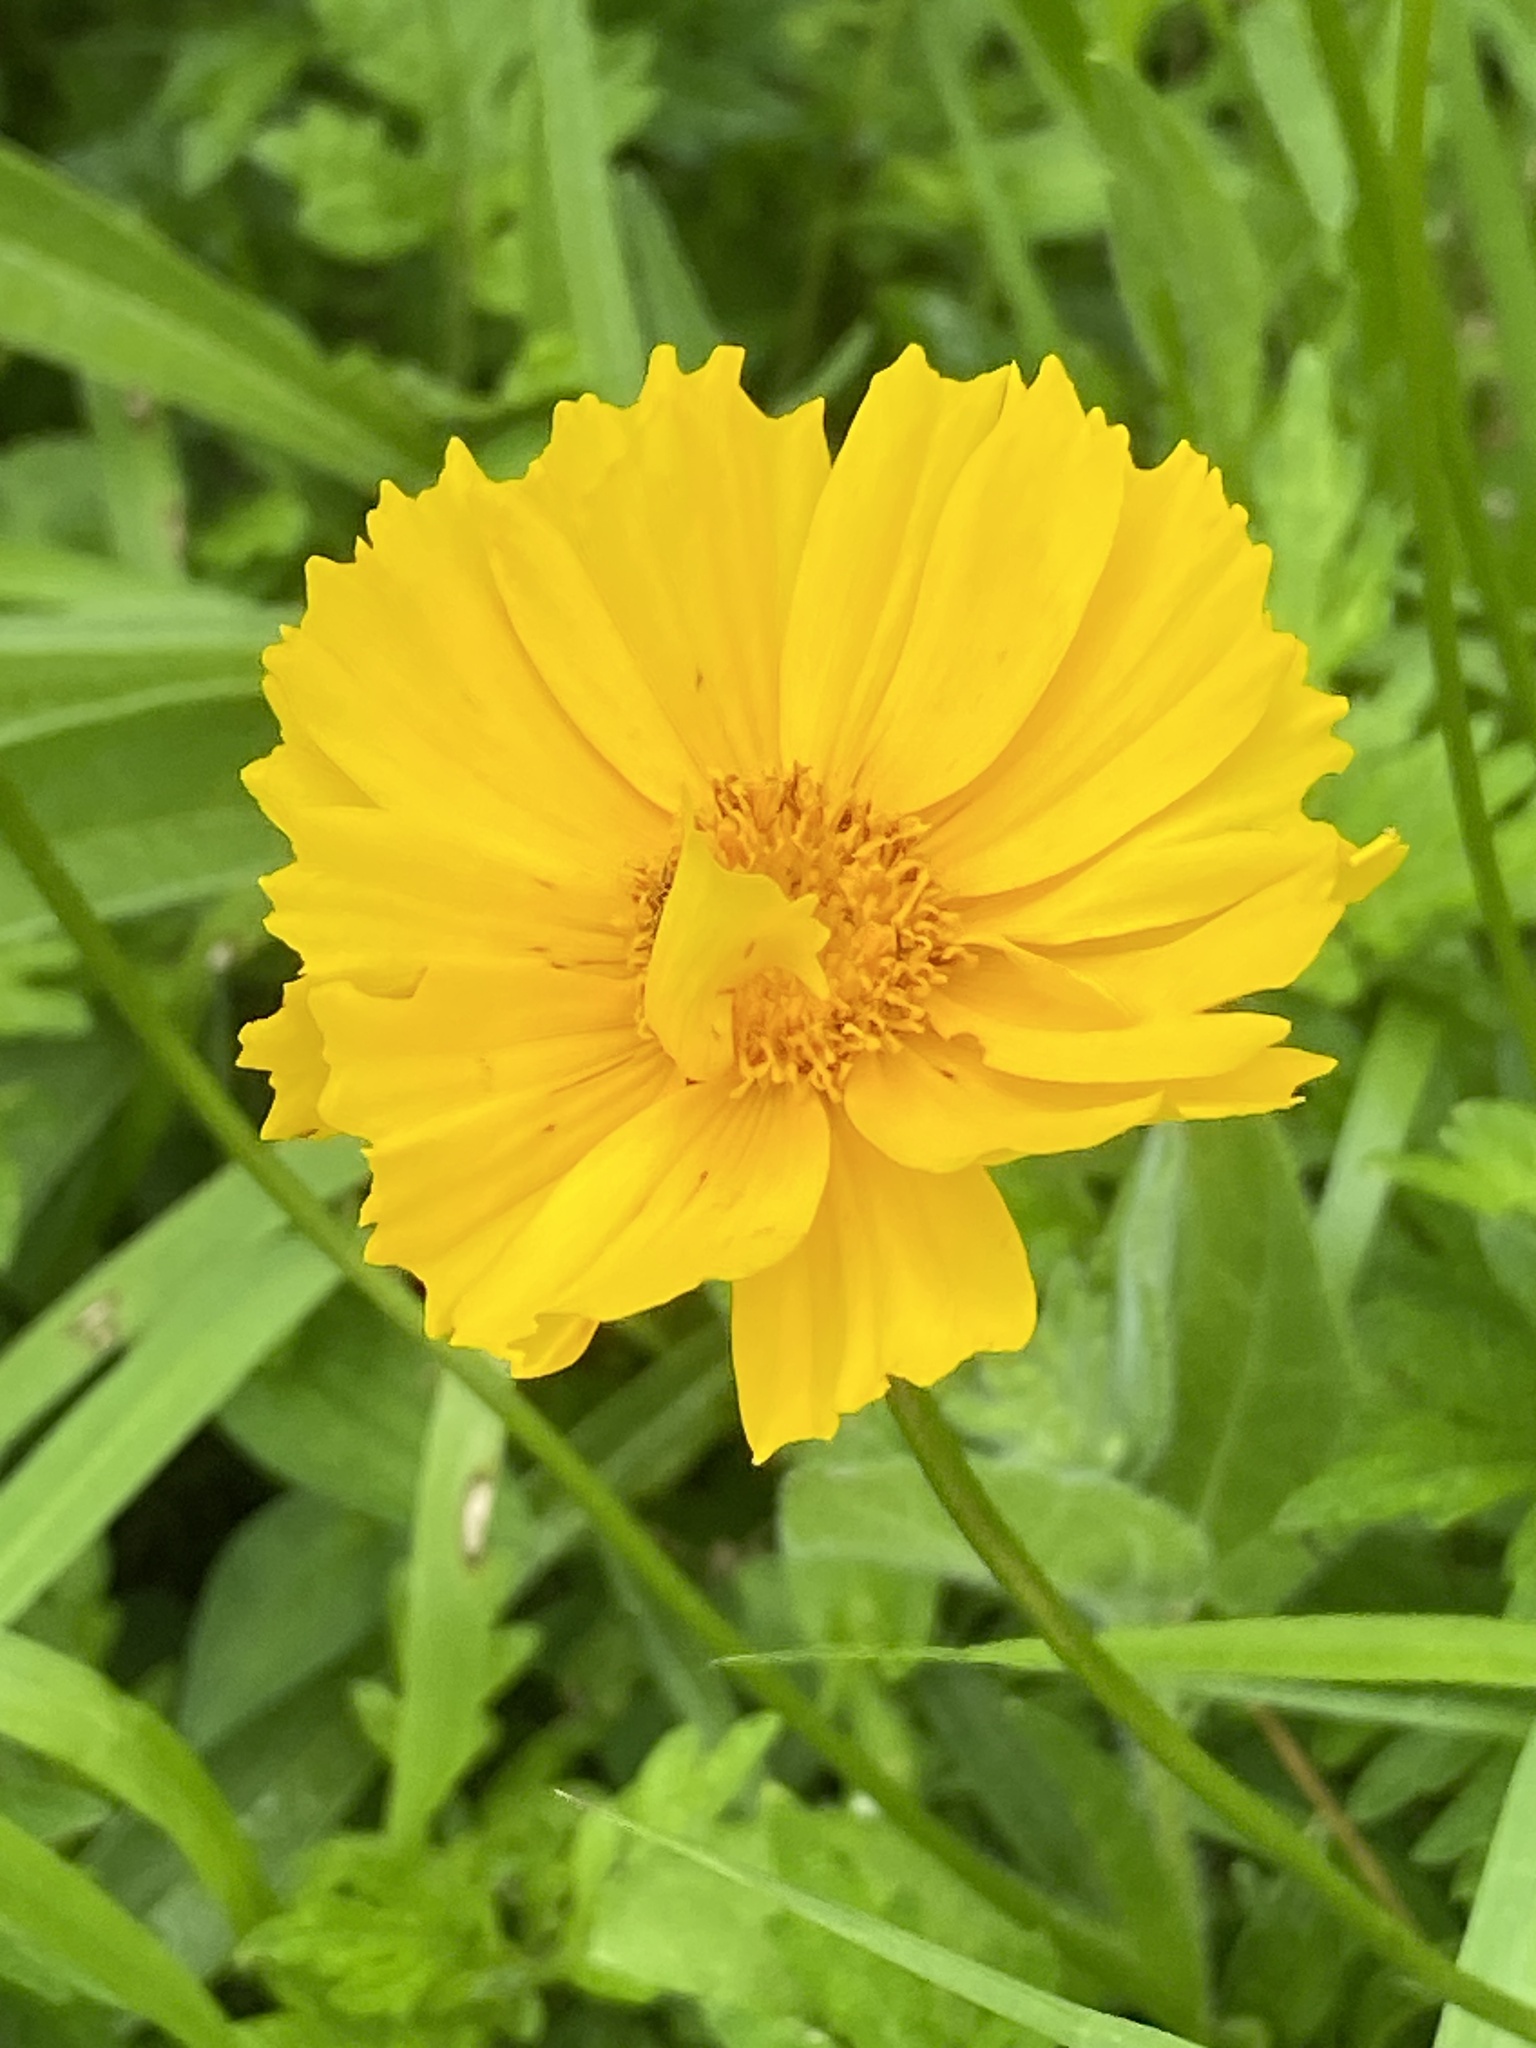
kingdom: Plantae
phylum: Tracheophyta
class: Magnoliopsida
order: Asterales
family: Asteraceae
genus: Coreopsis
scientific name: Coreopsis lanceolata
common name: Garden coreopsis
